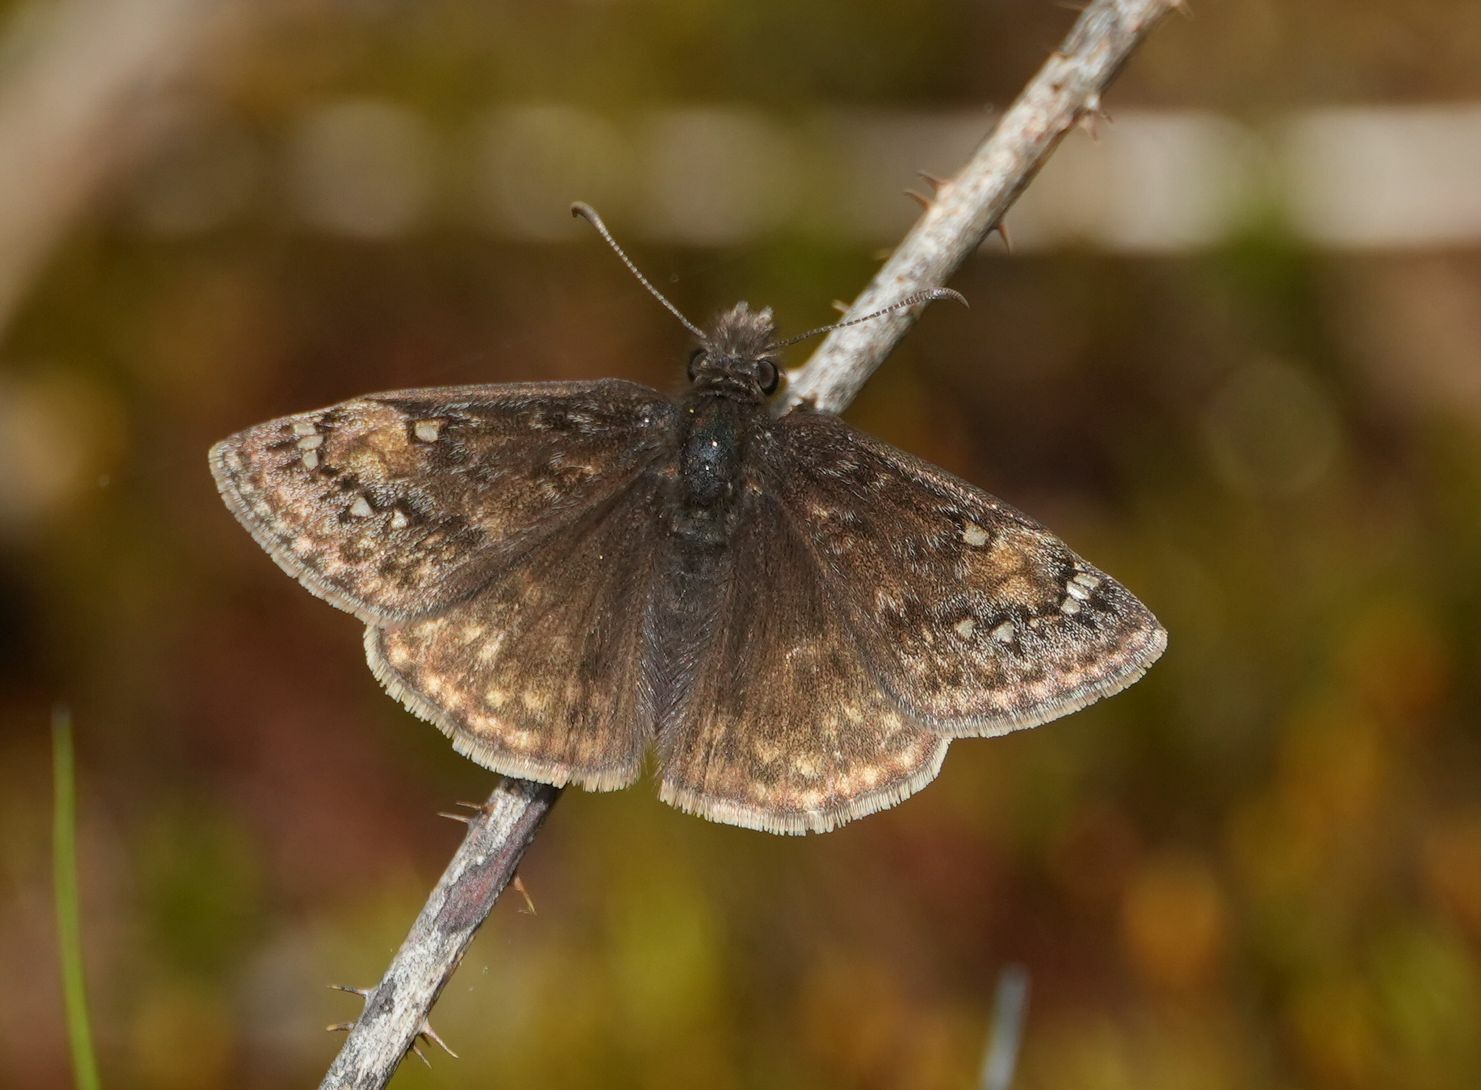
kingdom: Animalia
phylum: Arthropoda
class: Insecta
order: Lepidoptera
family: Hesperiidae
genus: Erynnis
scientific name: Erynnis juvenalis
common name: Juvenal's duskywing
